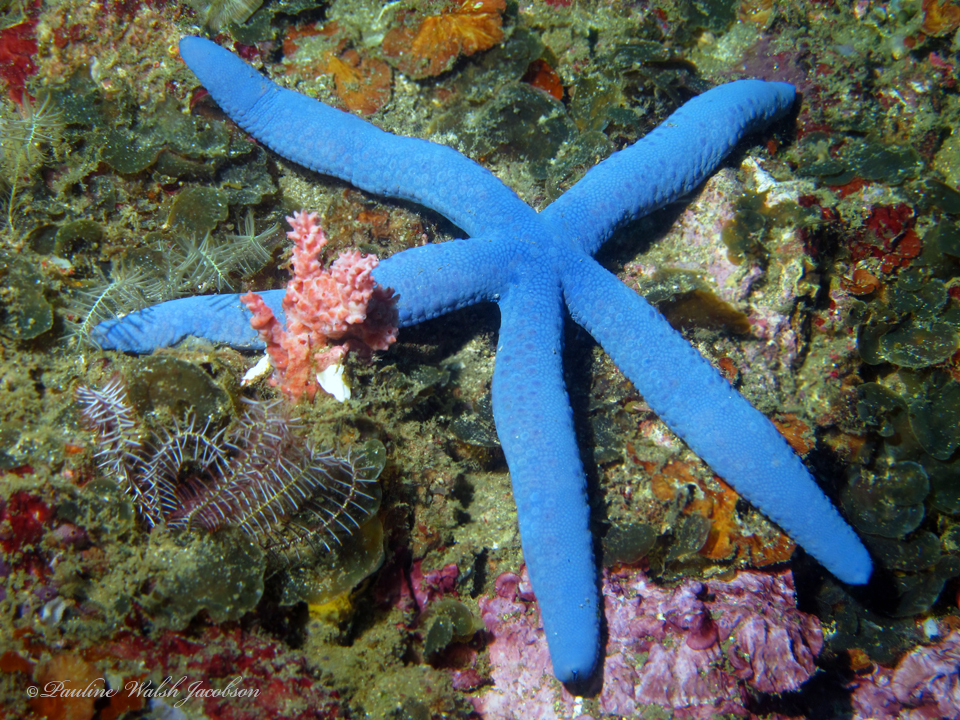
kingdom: Animalia
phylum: Echinodermata
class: Asteroidea
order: Valvatida
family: Ophidiasteridae
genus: Linckia
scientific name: Linckia laevigata
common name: Azure sea star
